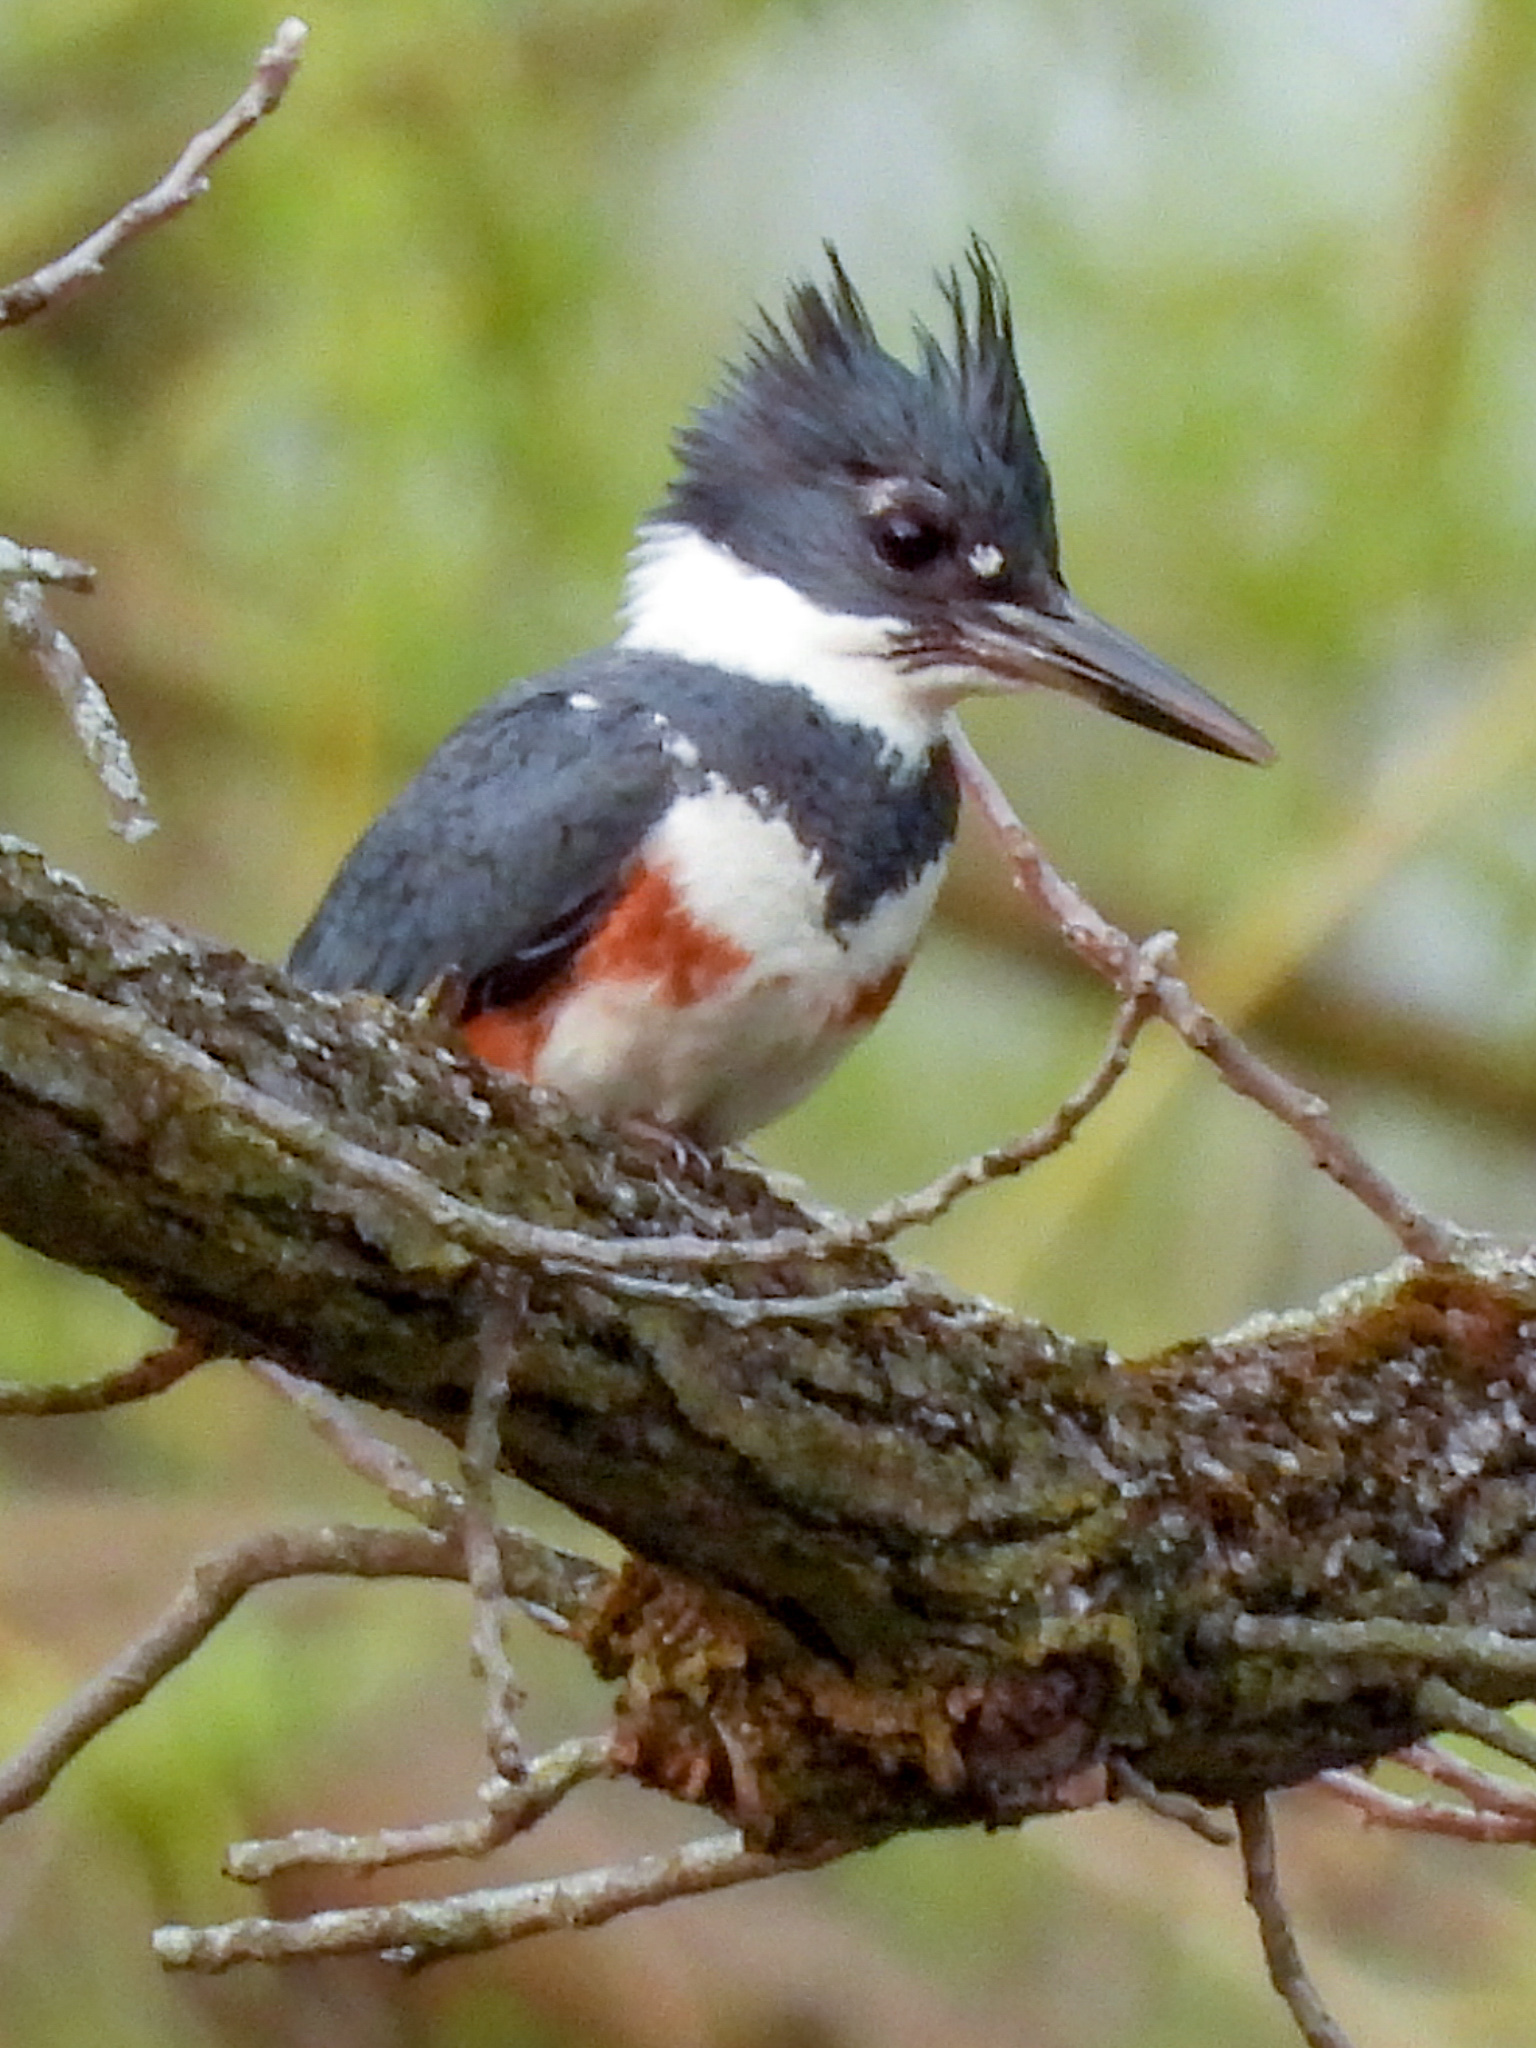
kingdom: Animalia
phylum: Chordata
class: Aves
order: Coraciiformes
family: Alcedinidae
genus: Megaceryle
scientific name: Megaceryle alcyon
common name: Belted kingfisher
